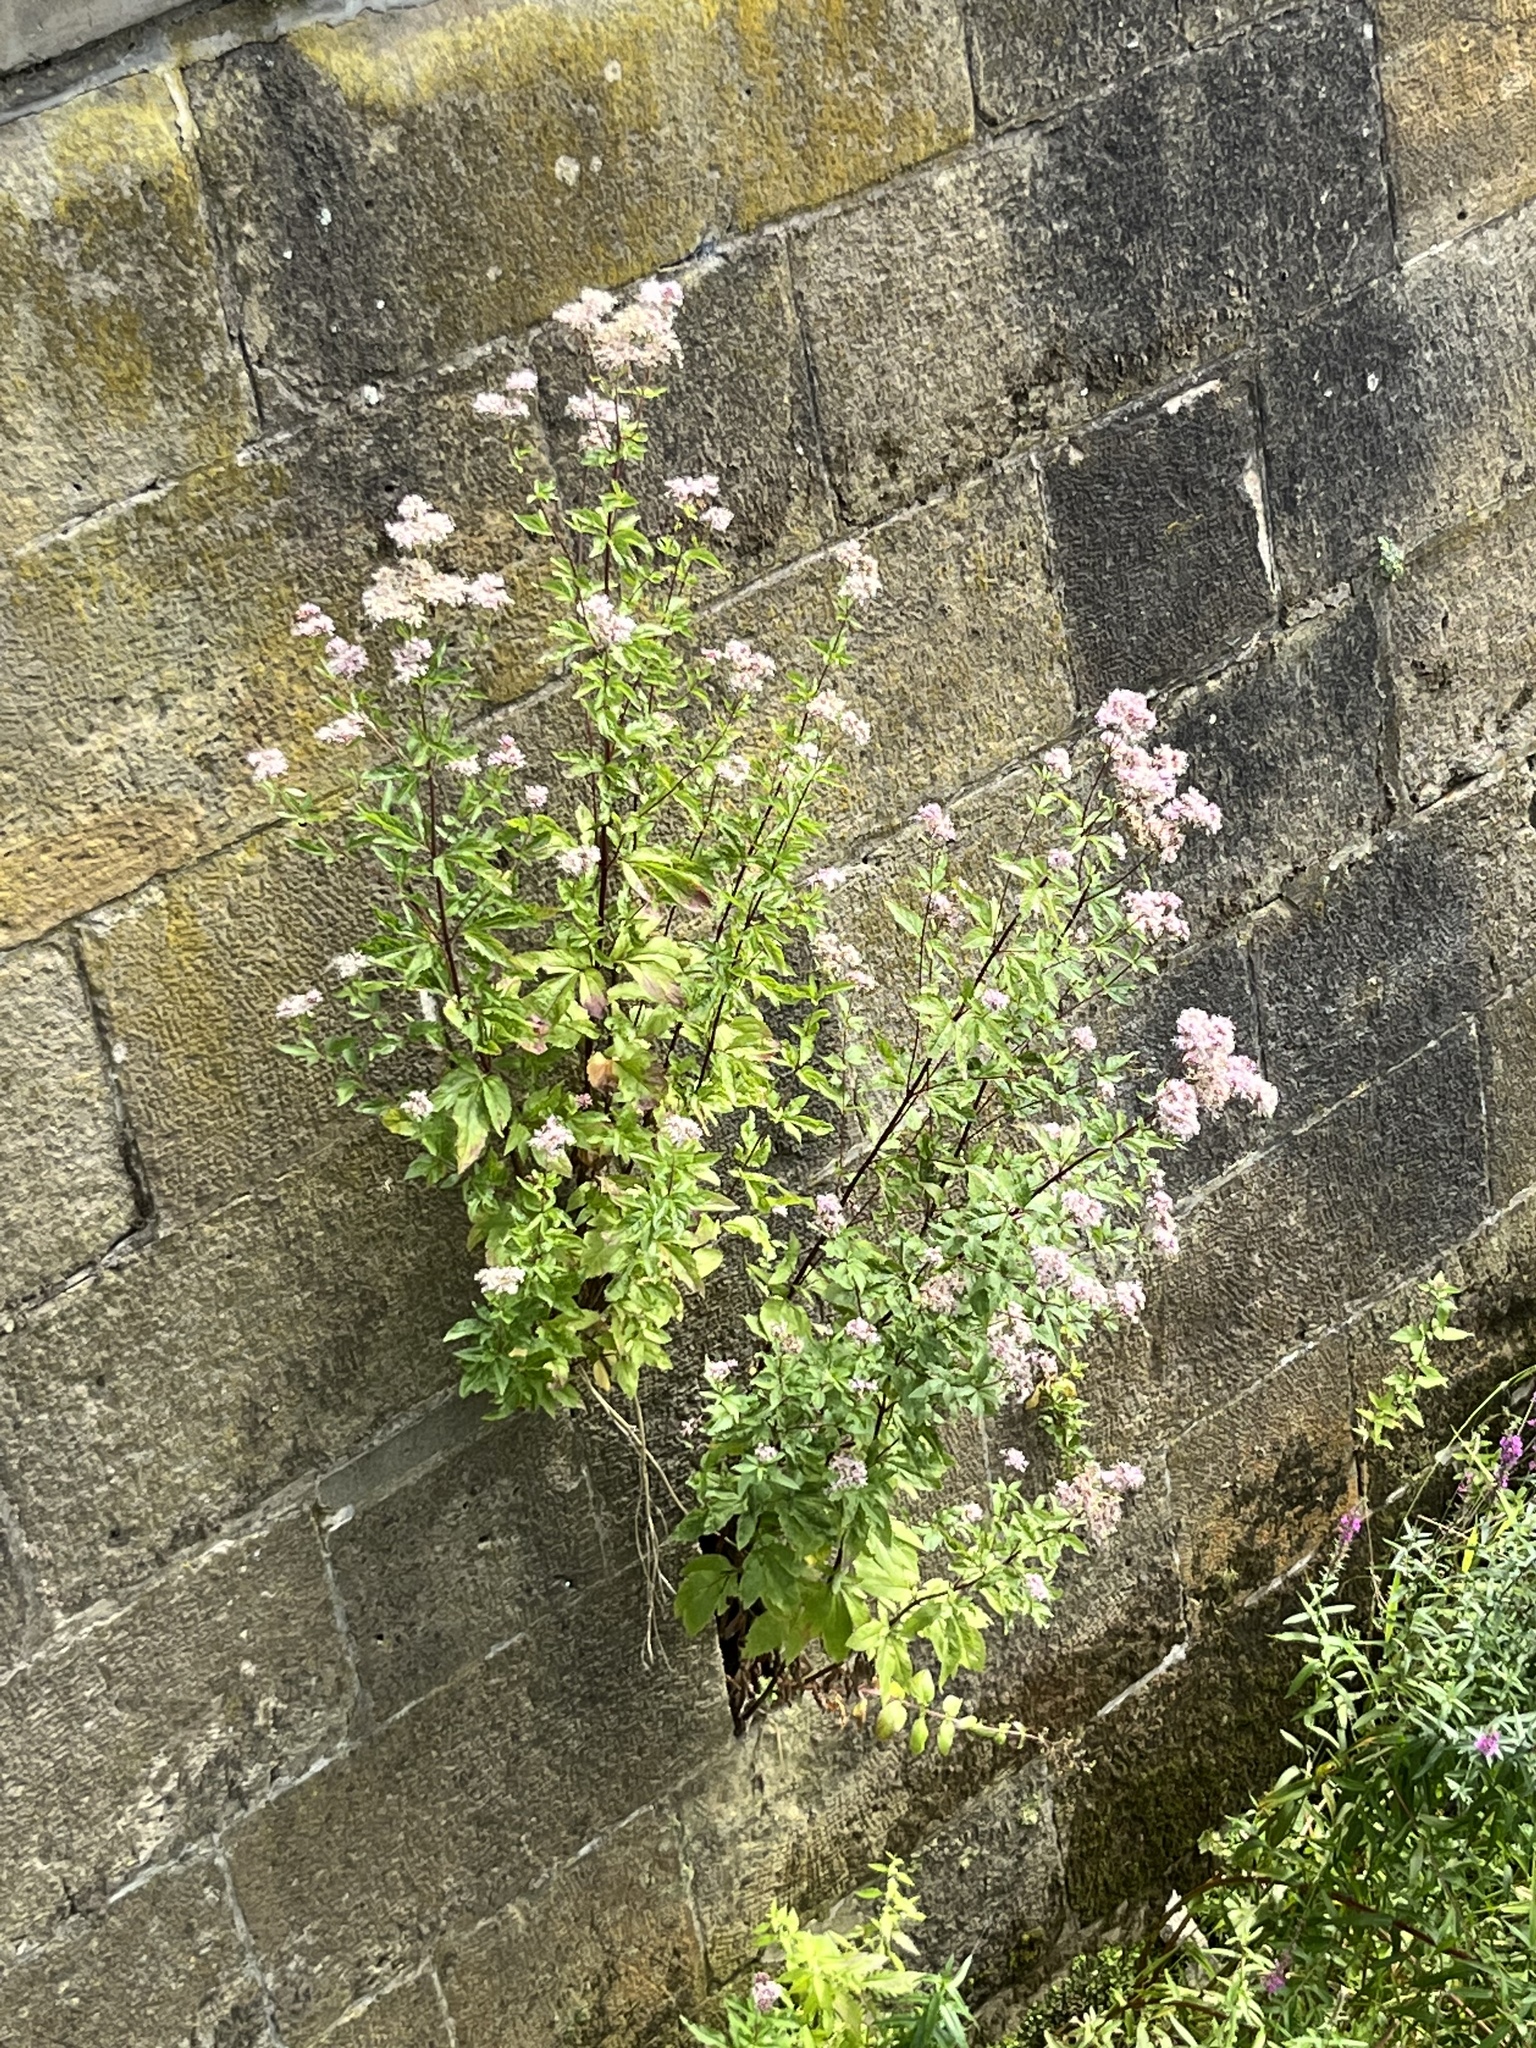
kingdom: Plantae
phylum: Tracheophyta
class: Magnoliopsida
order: Asterales
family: Asteraceae
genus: Eupatorium
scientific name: Eupatorium cannabinum
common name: Hemp-agrimony
